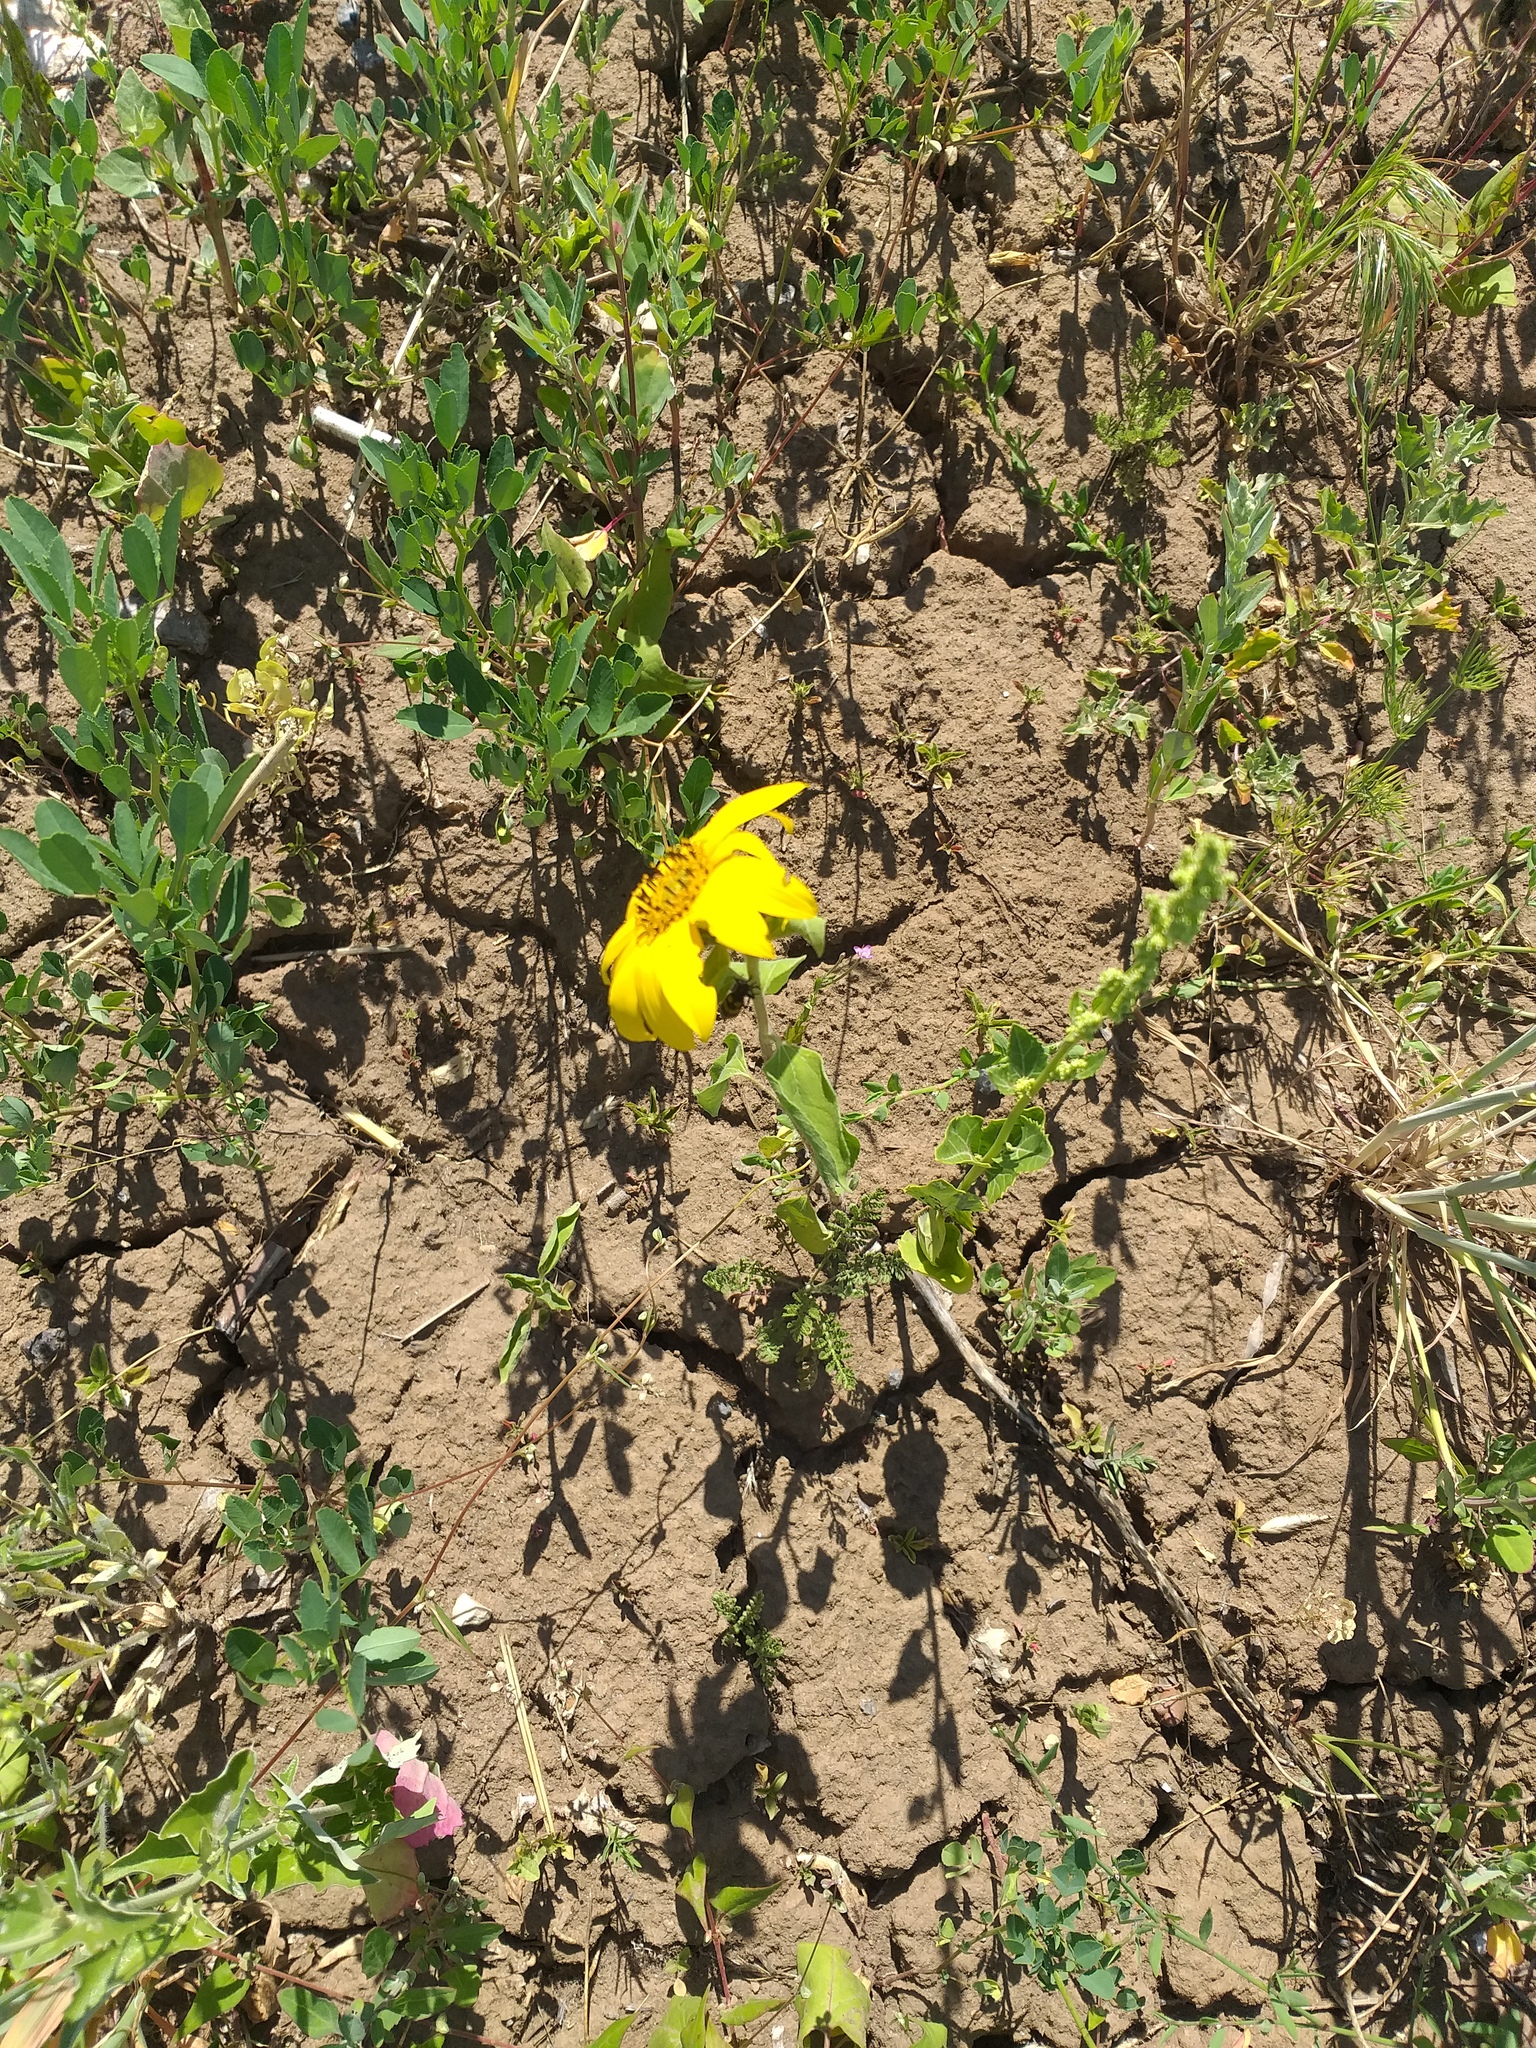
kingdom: Plantae
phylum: Tracheophyta
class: Magnoliopsida
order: Asterales
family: Asteraceae
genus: Helianthus
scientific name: Helianthus annuus
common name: Sunflower
